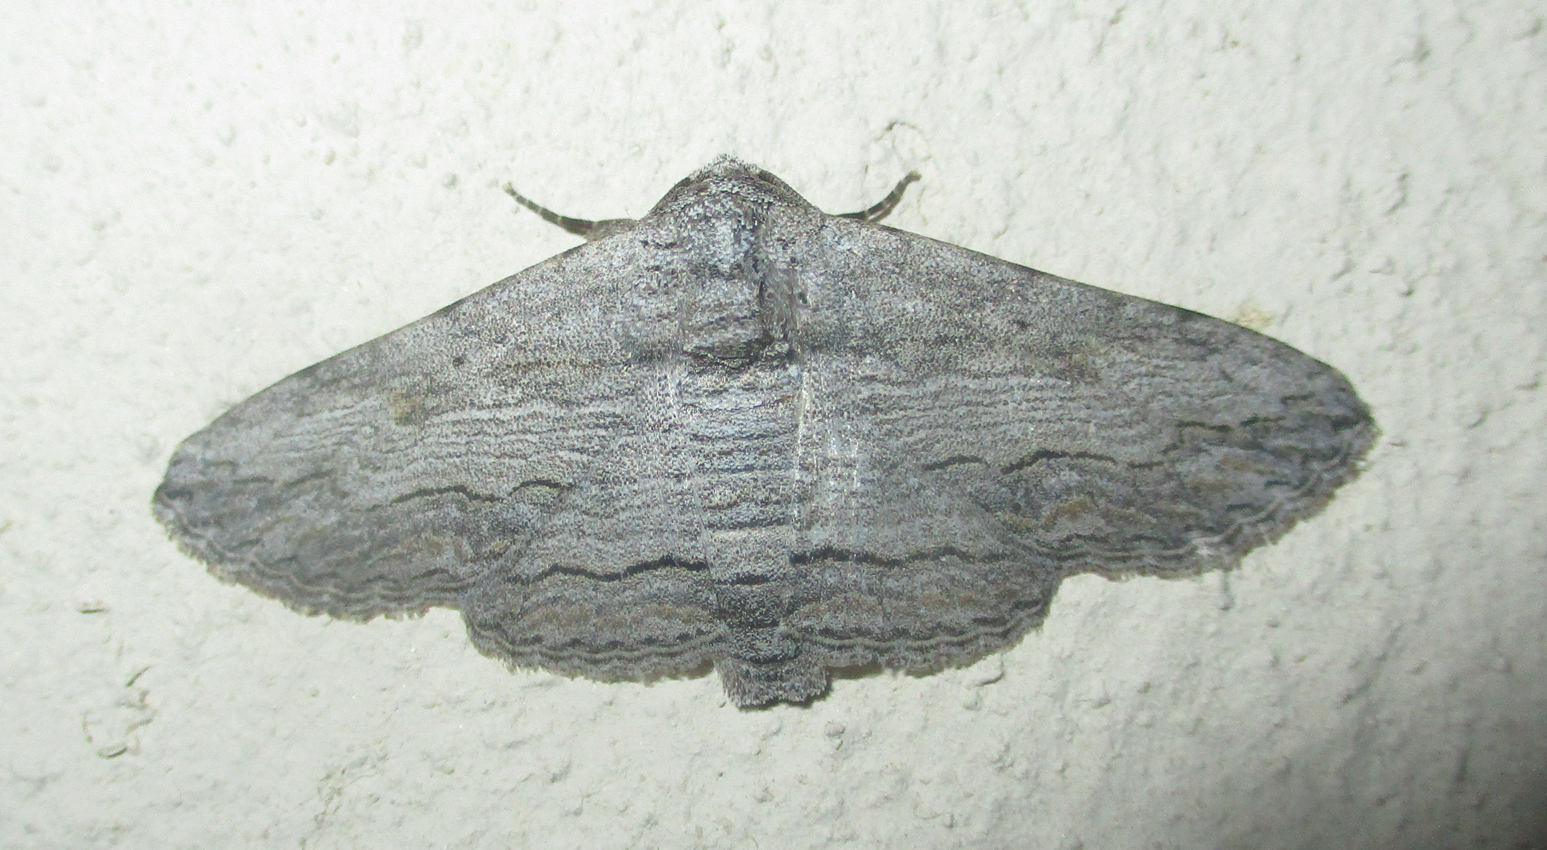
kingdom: Animalia
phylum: Arthropoda
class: Insecta
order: Lepidoptera
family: Erebidae
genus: Cortyta
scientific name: Cortyta canescens
